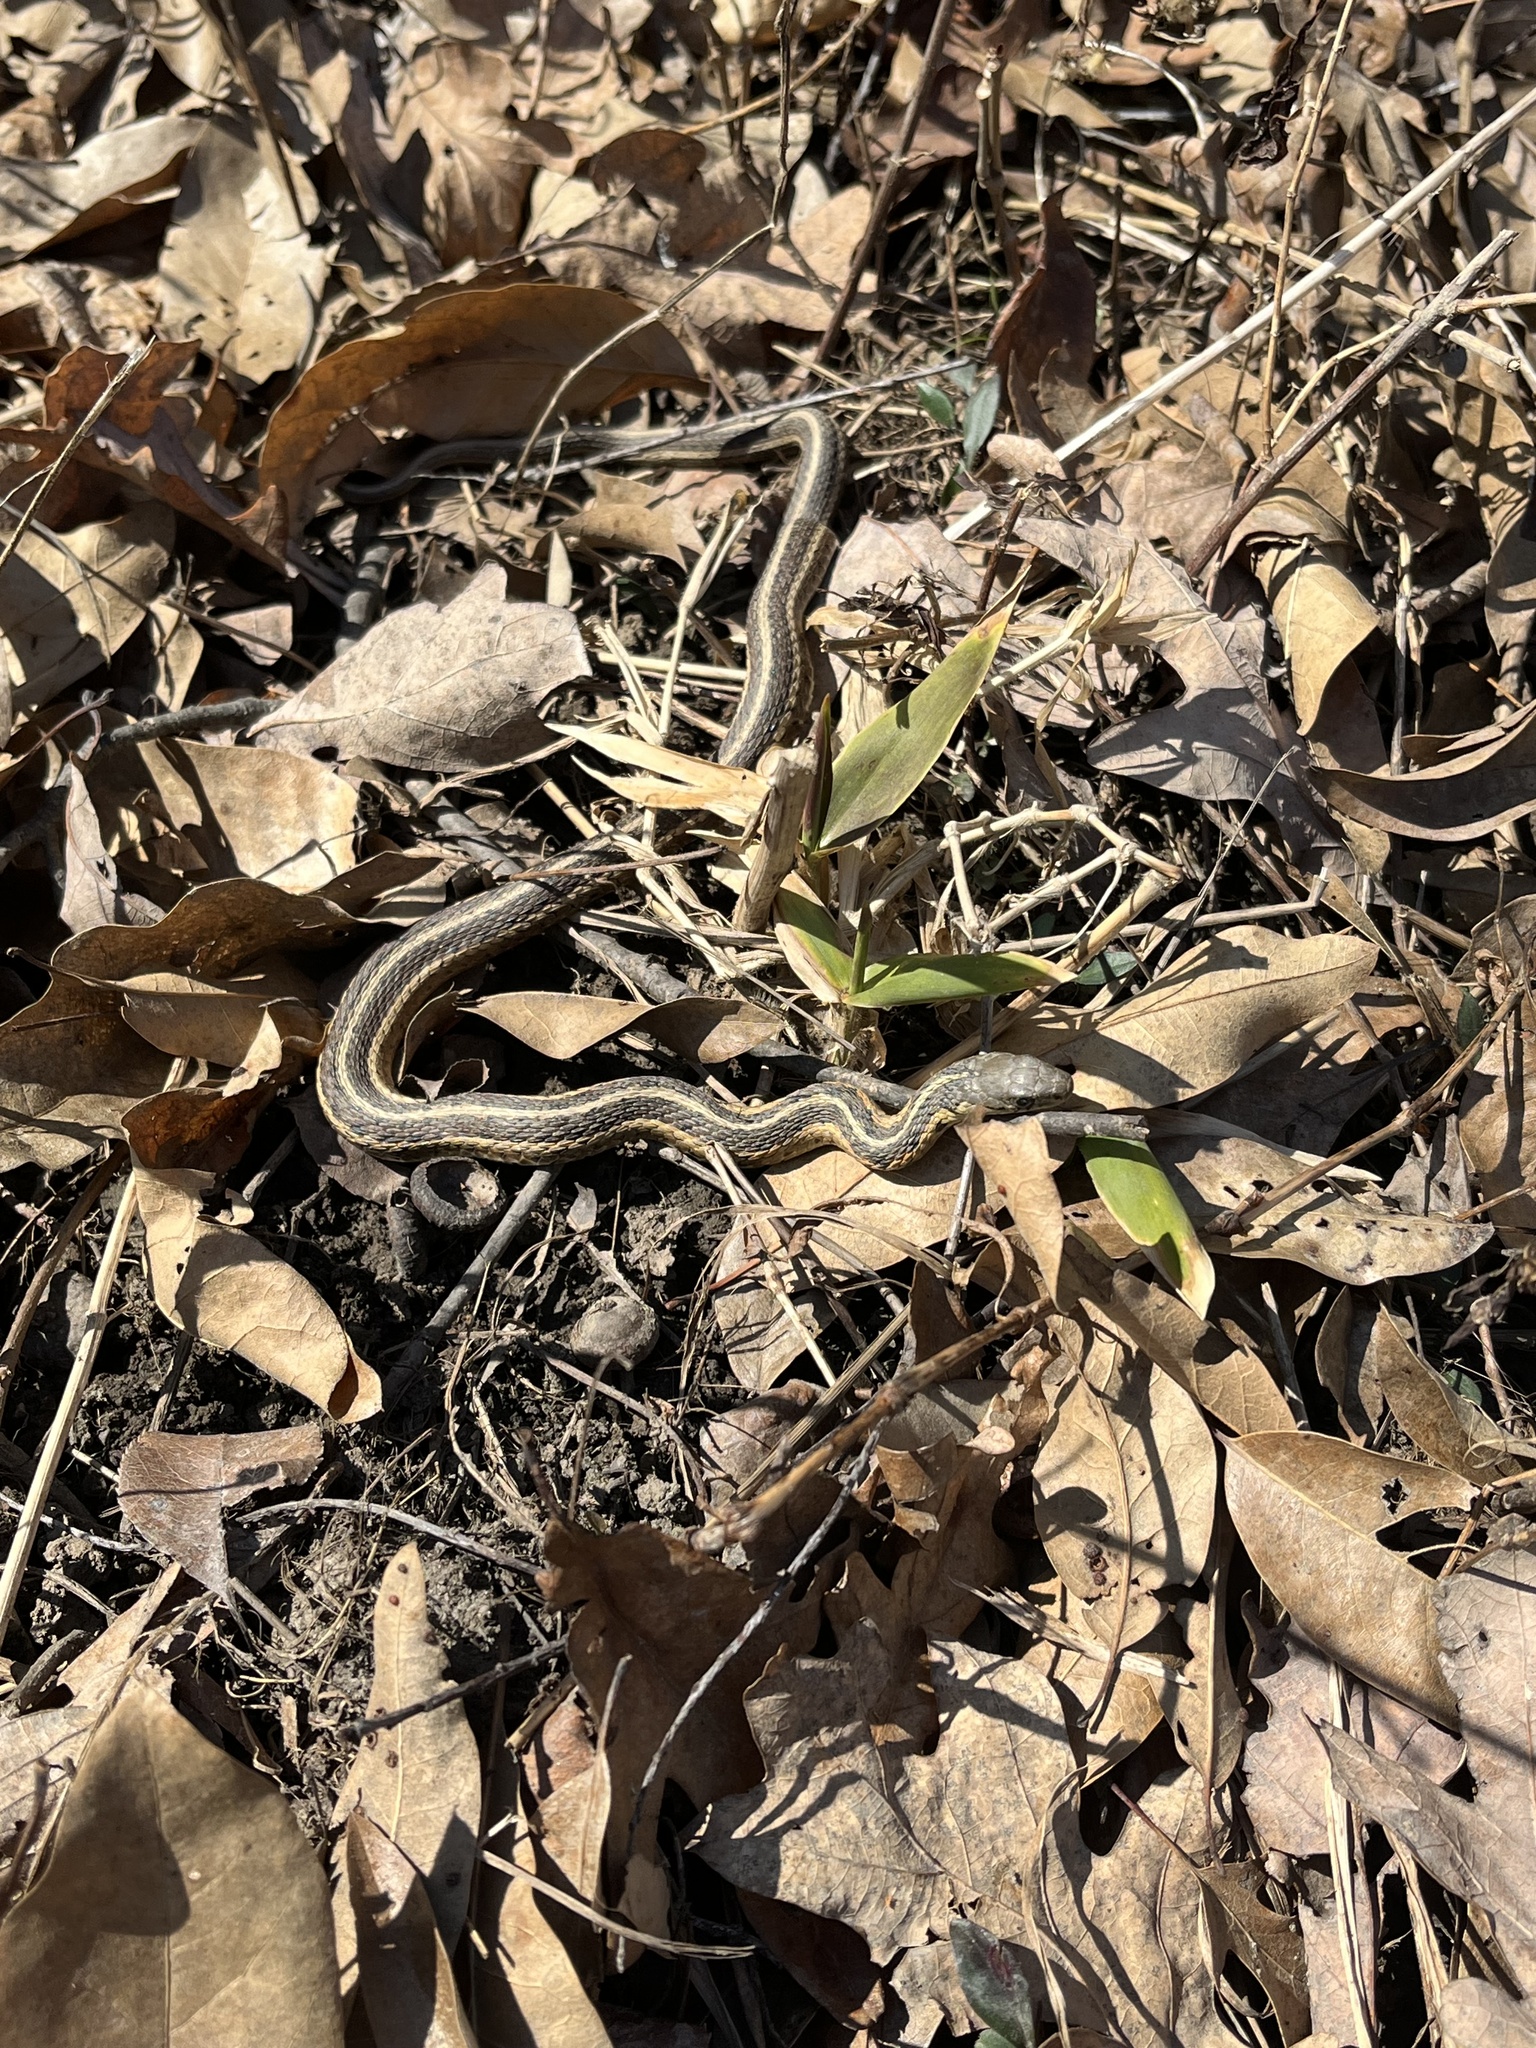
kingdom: Animalia
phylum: Chordata
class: Squamata
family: Colubridae
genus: Thamnophis
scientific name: Thamnophis sirtalis
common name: Common garter snake
